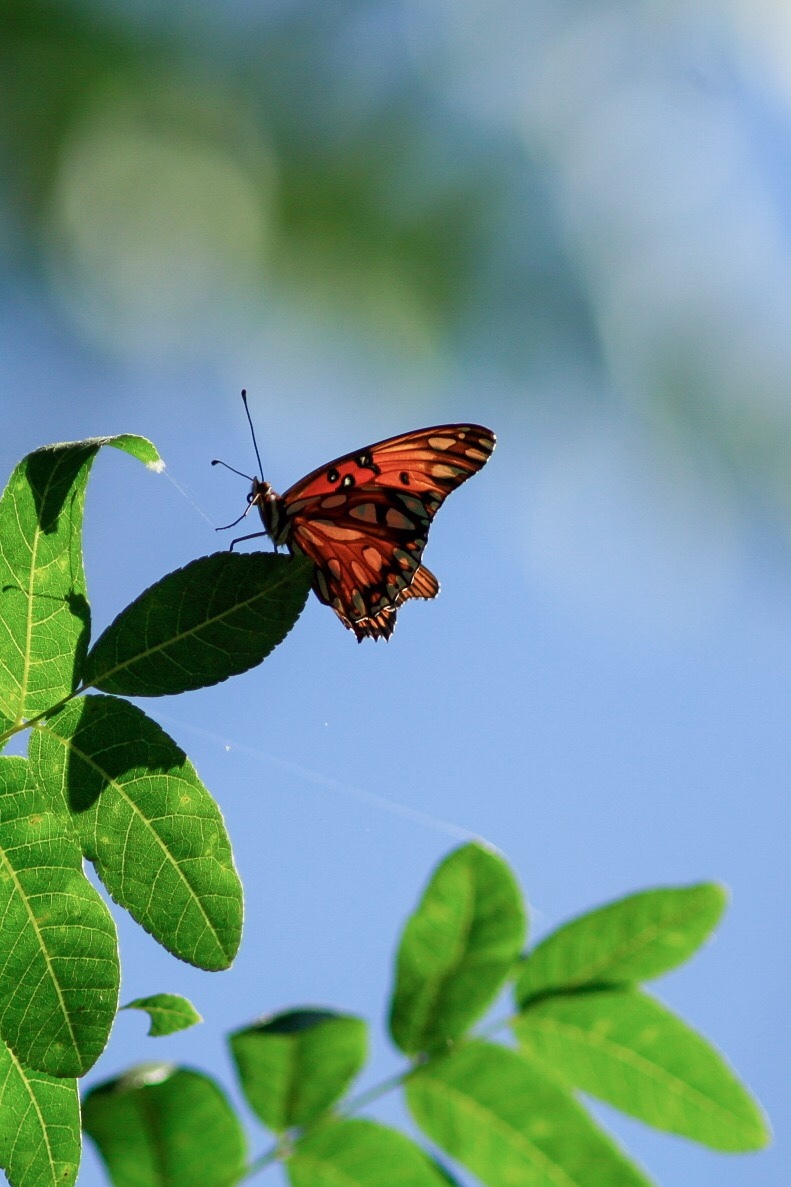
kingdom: Animalia
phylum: Arthropoda
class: Insecta
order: Lepidoptera
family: Nymphalidae
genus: Dione
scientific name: Dione vanillae
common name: Gulf fritillary
